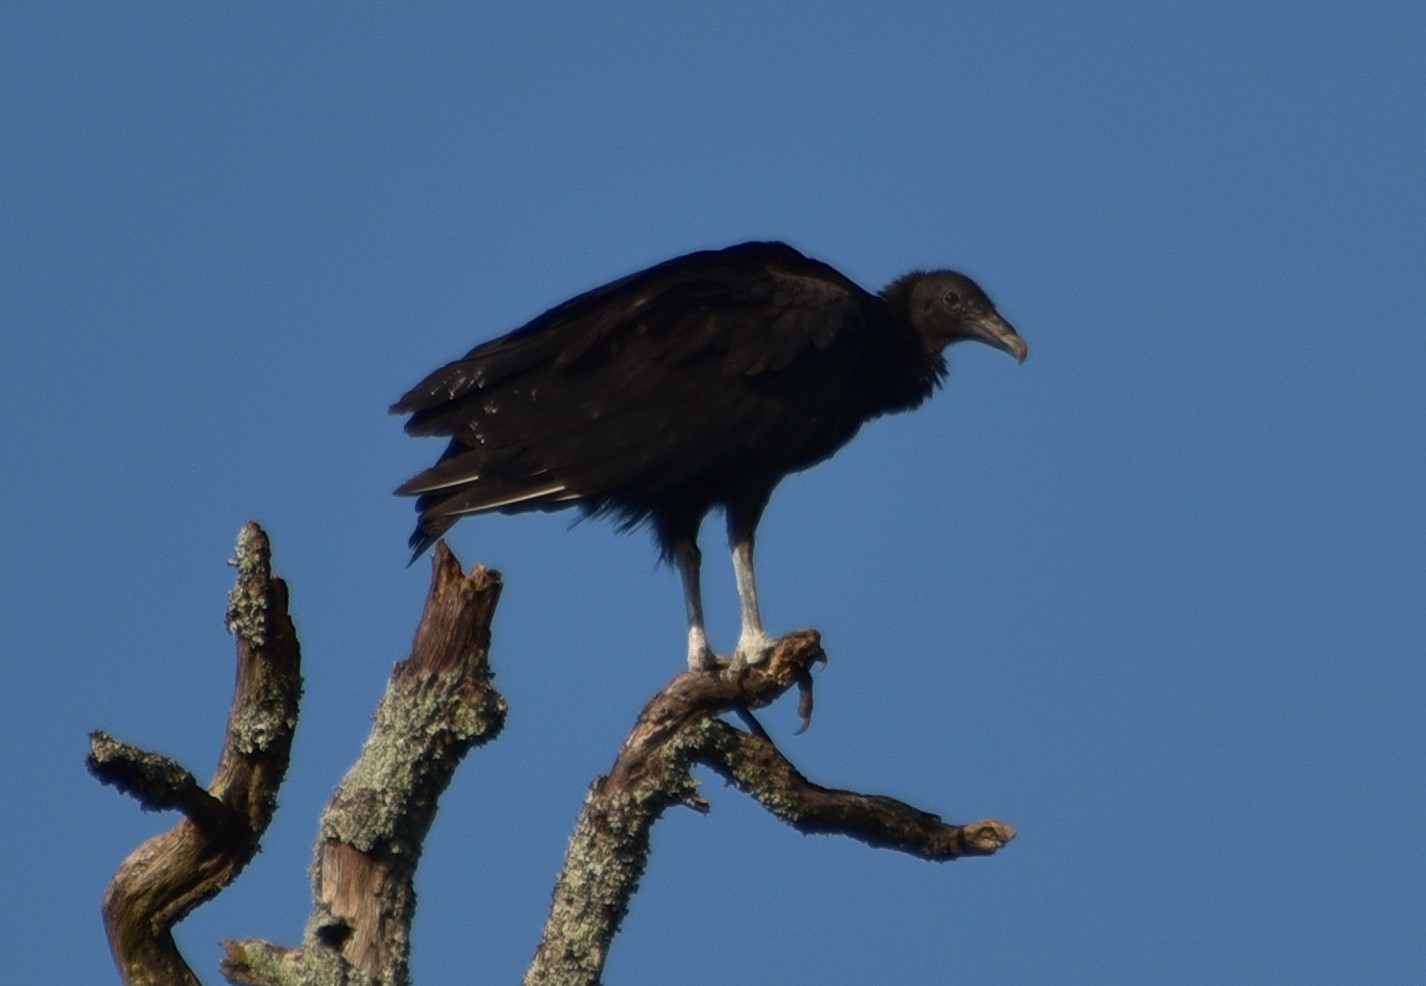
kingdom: Animalia
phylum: Chordata
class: Aves
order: Accipitriformes
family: Cathartidae
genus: Coragyps
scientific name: Coragyps atratus
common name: Black vulture
